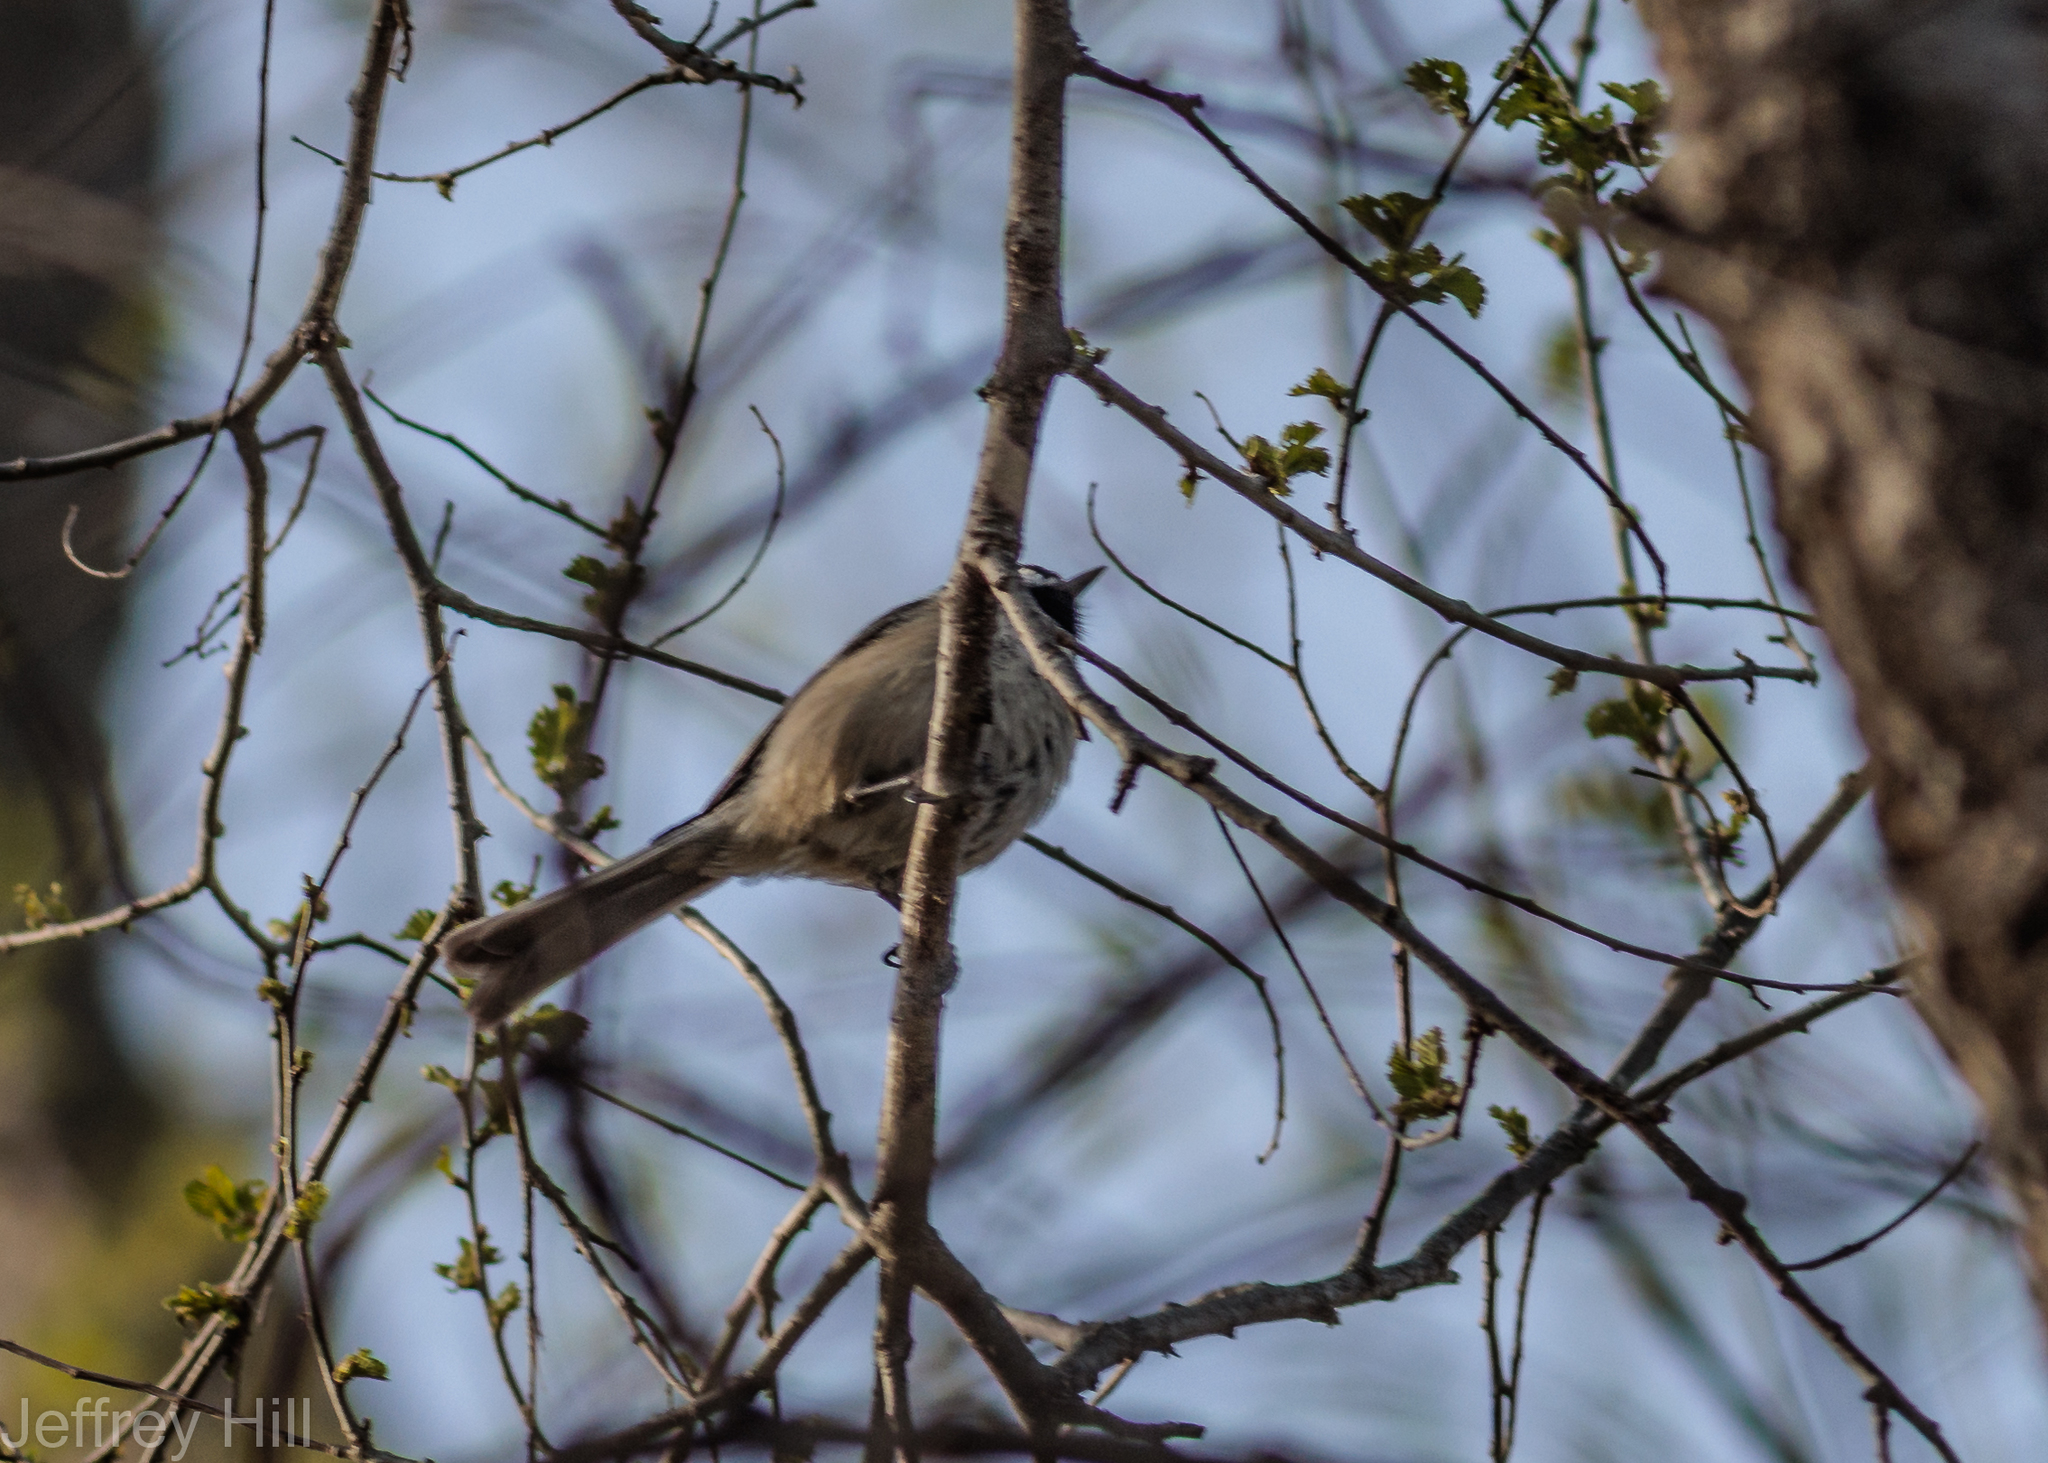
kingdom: Animalia
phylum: Chordata
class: Aves
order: Passeriformes
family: Paridae
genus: Poecile
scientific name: Poecile atricapillus
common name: Black-capped chickadee
